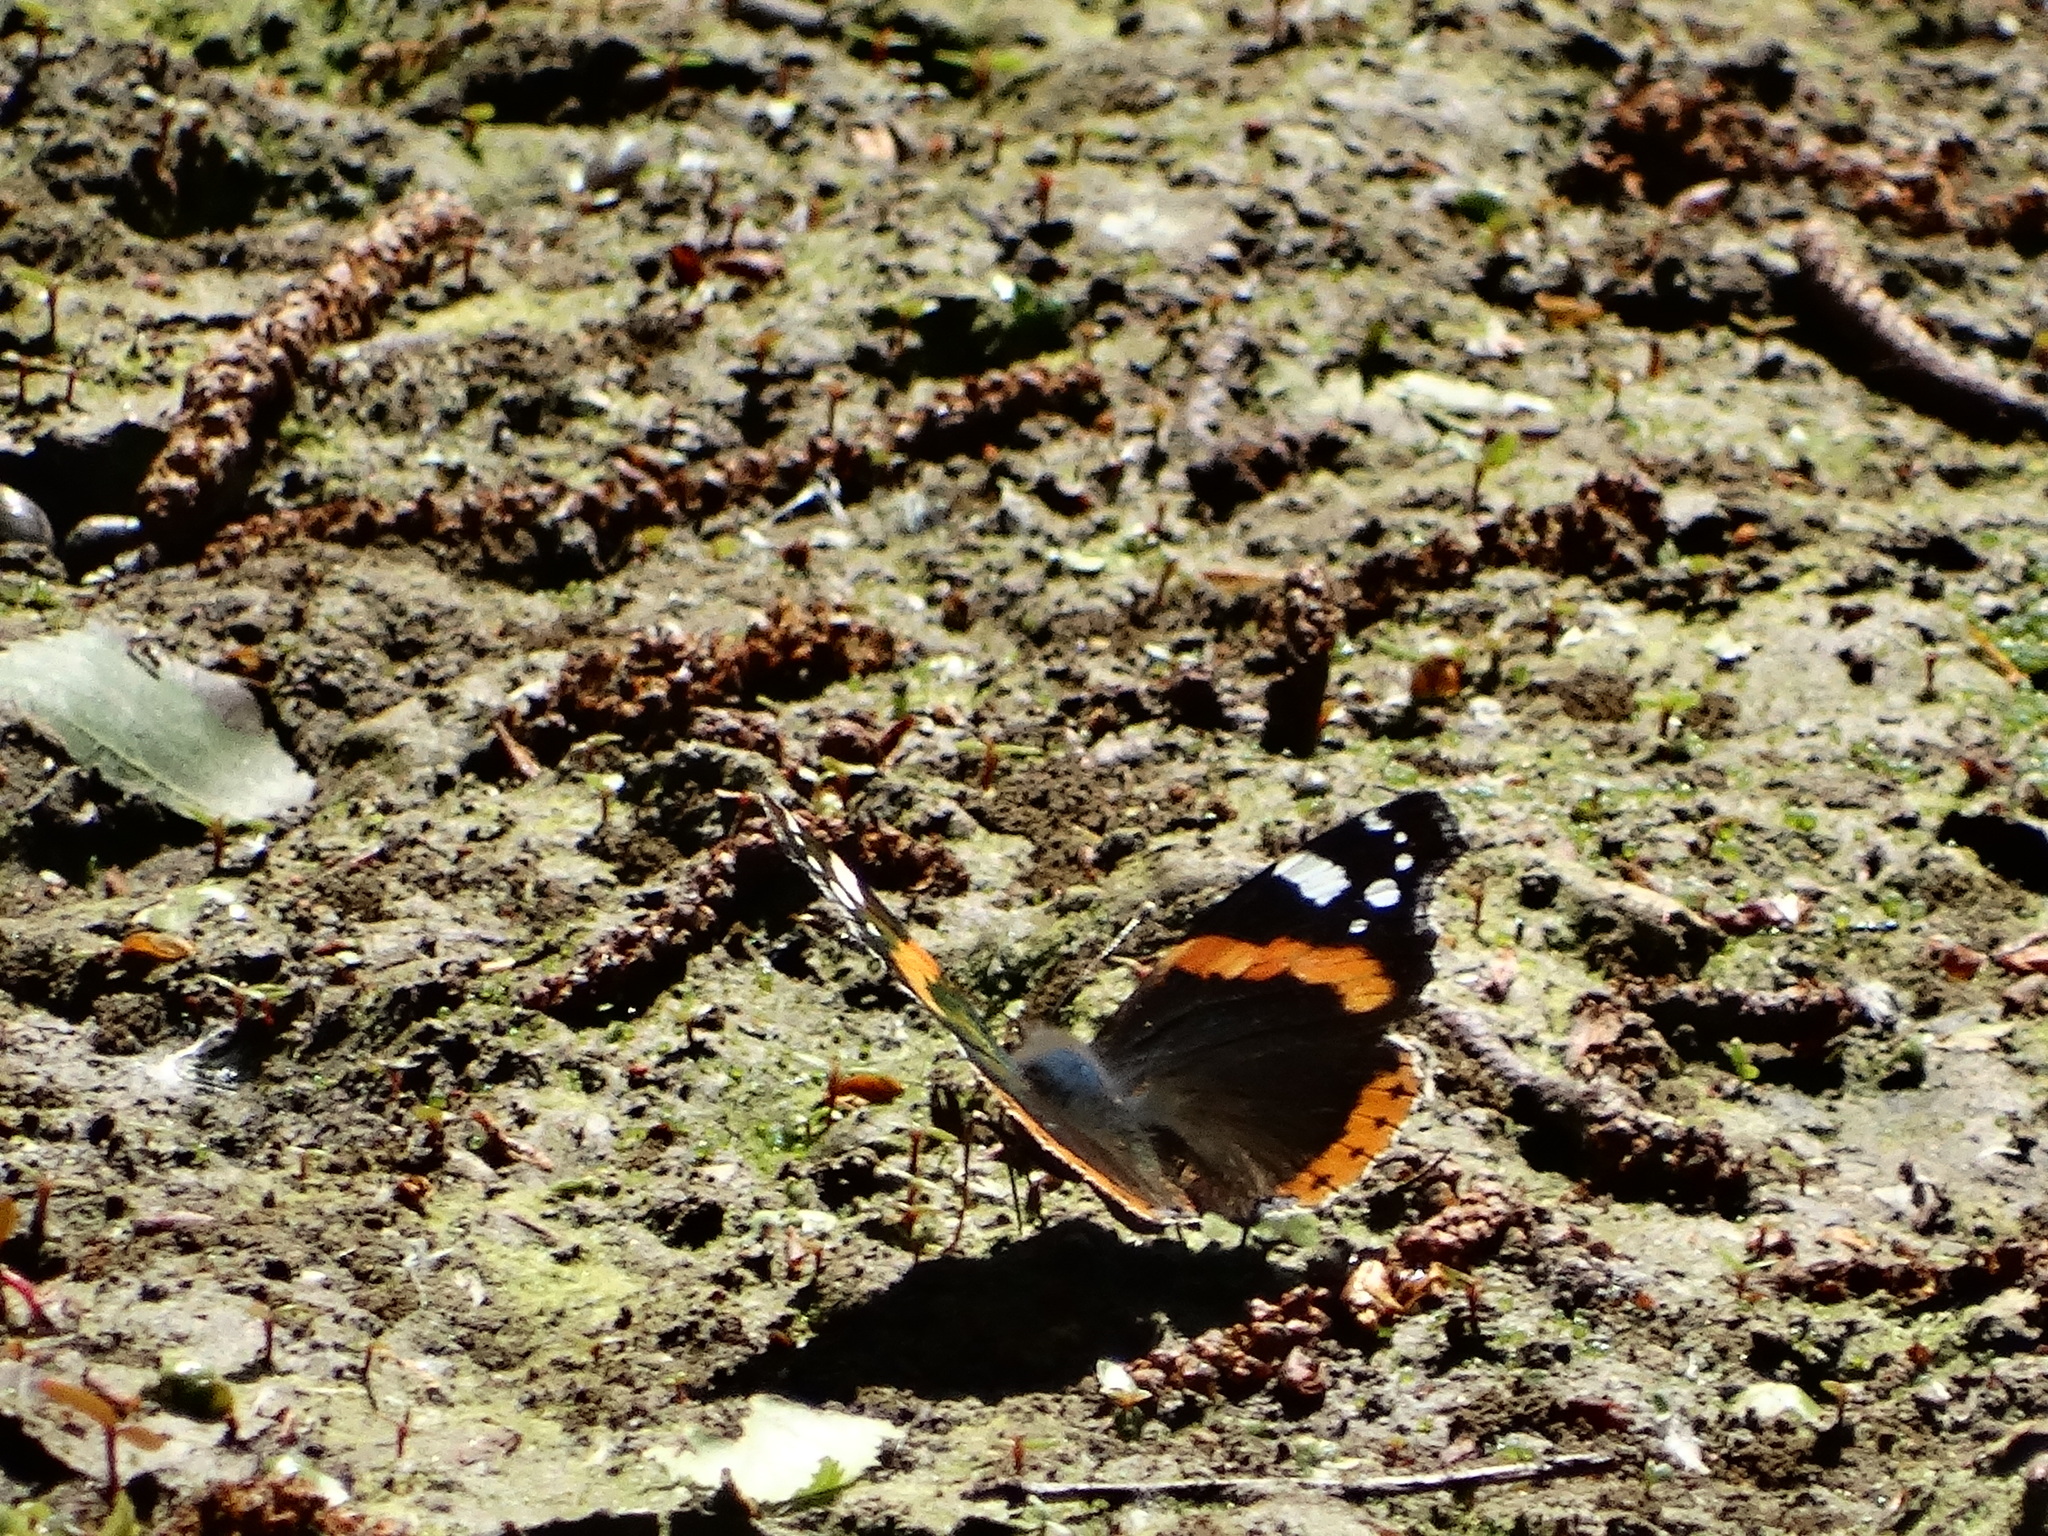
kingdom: Animalia
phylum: Arthropoda
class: Insecta
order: Lepidoptera
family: Nymphalidae
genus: Vanessa
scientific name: Vanessa atalanta
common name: Red admiral
